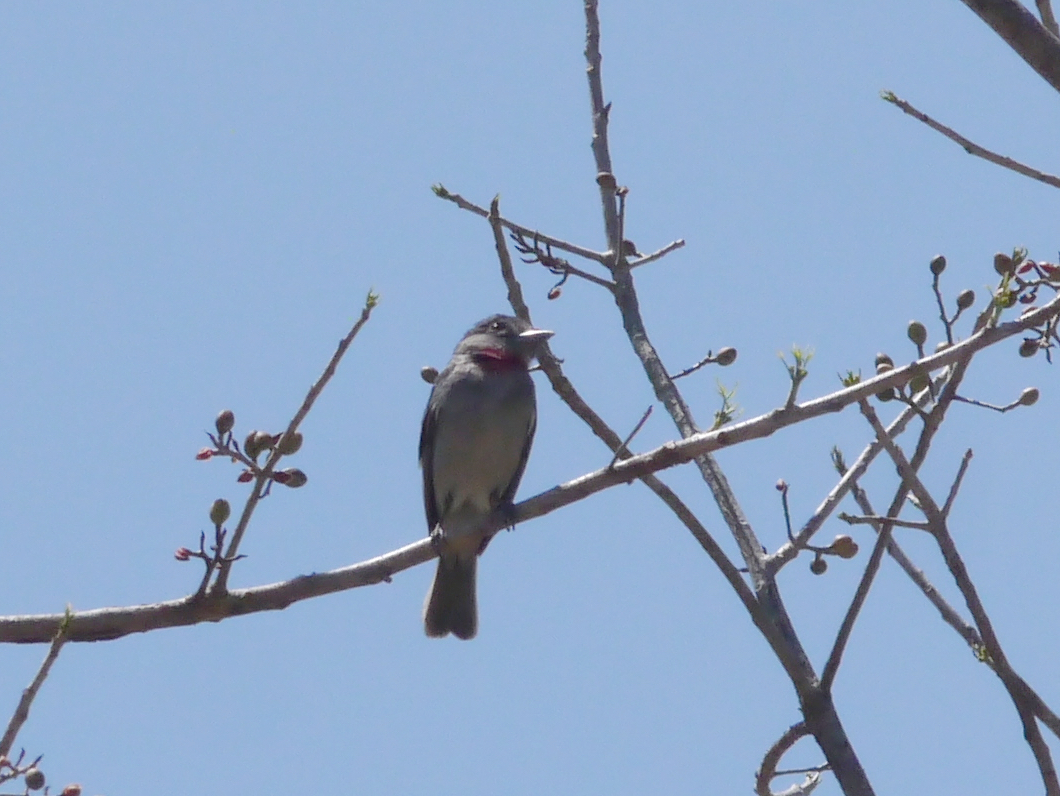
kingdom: Animalia
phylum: Chordata
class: Aves
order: Passeriformes
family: Cotingidae
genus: Pachyramphus
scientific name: Pachyramphus aglaiae
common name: Rose-throated becard
